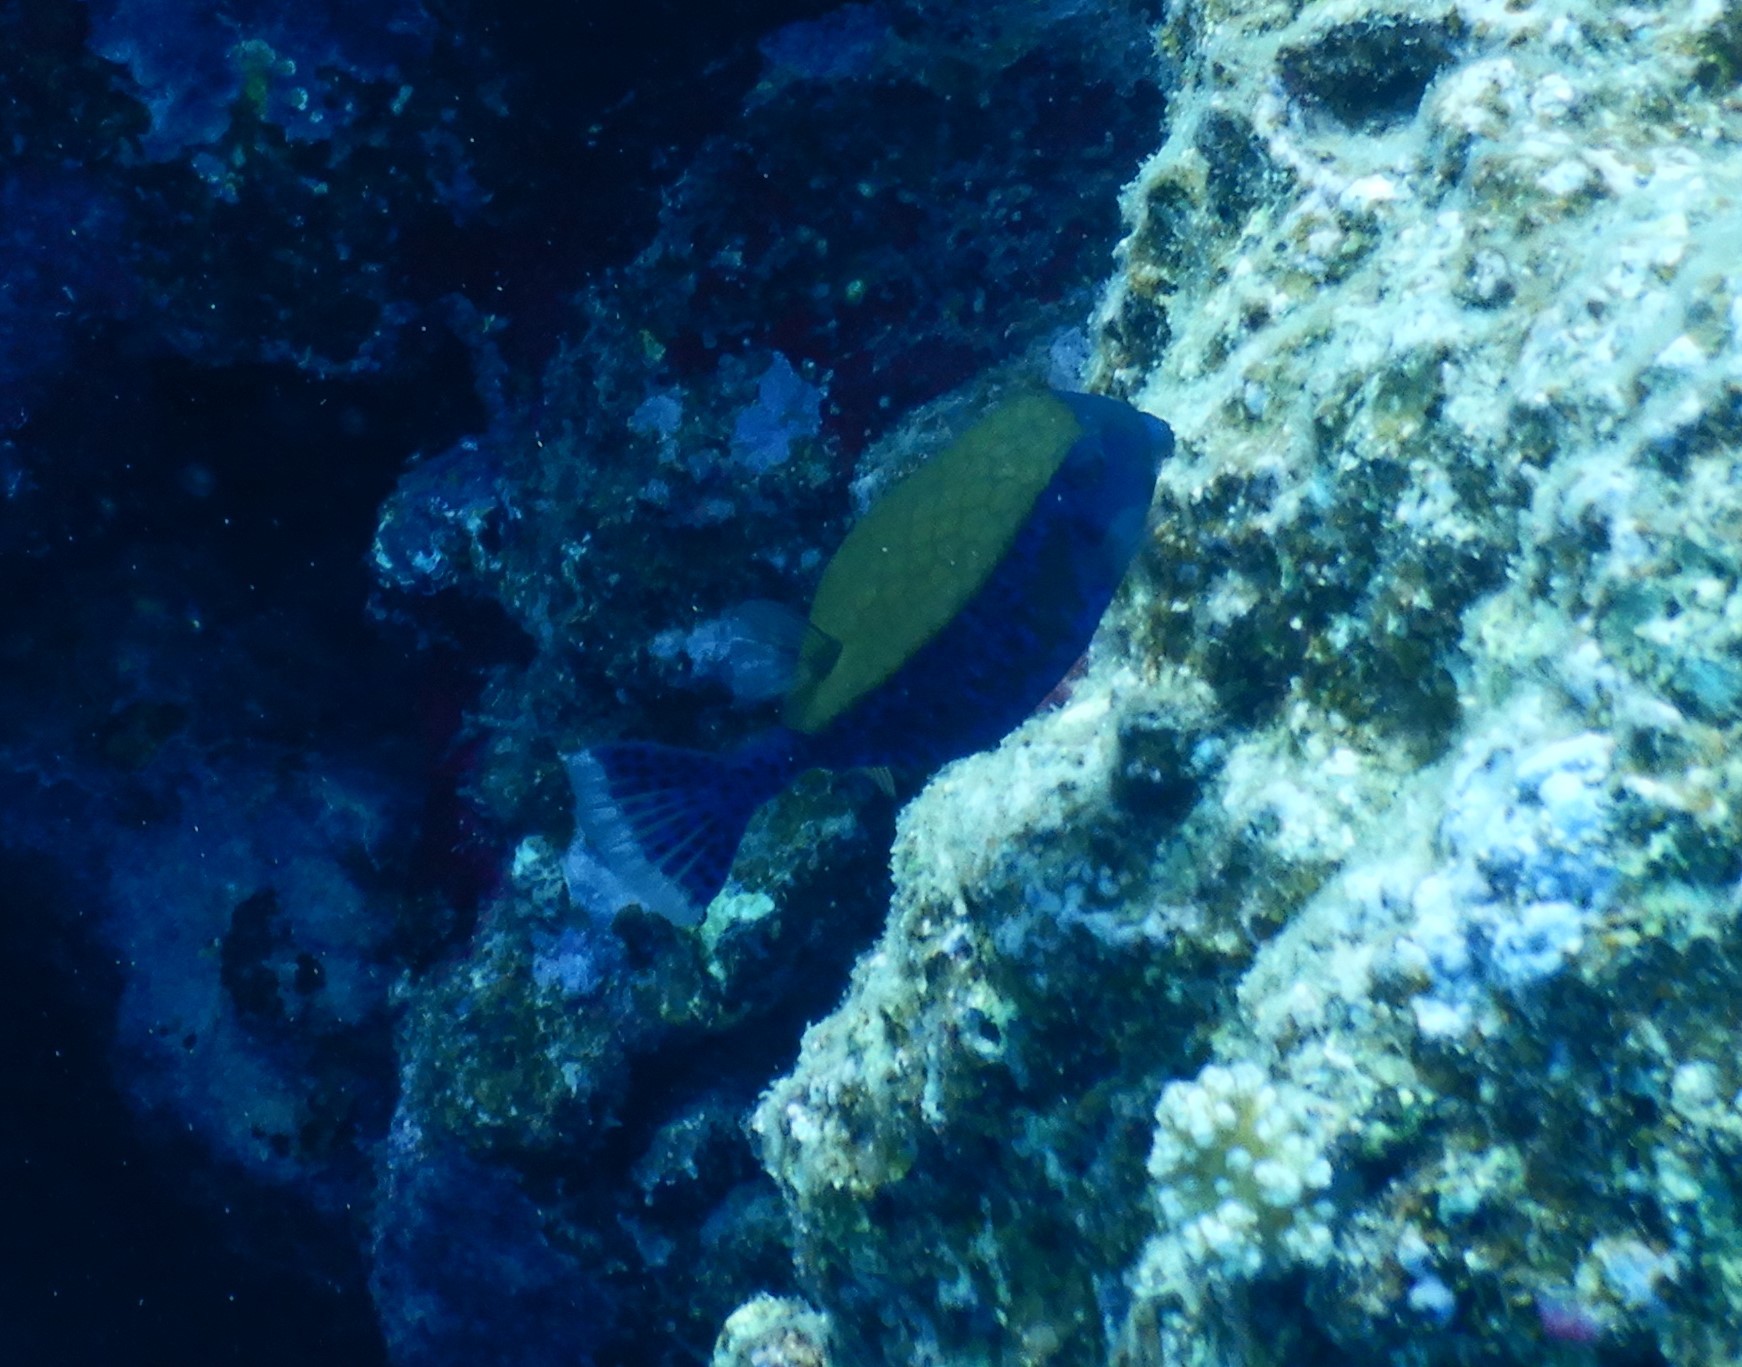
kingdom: Animalia
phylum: Chordata
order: Tetraodontiformes
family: Ostraciidae
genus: Ostracion
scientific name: Ostracion cyanurus
